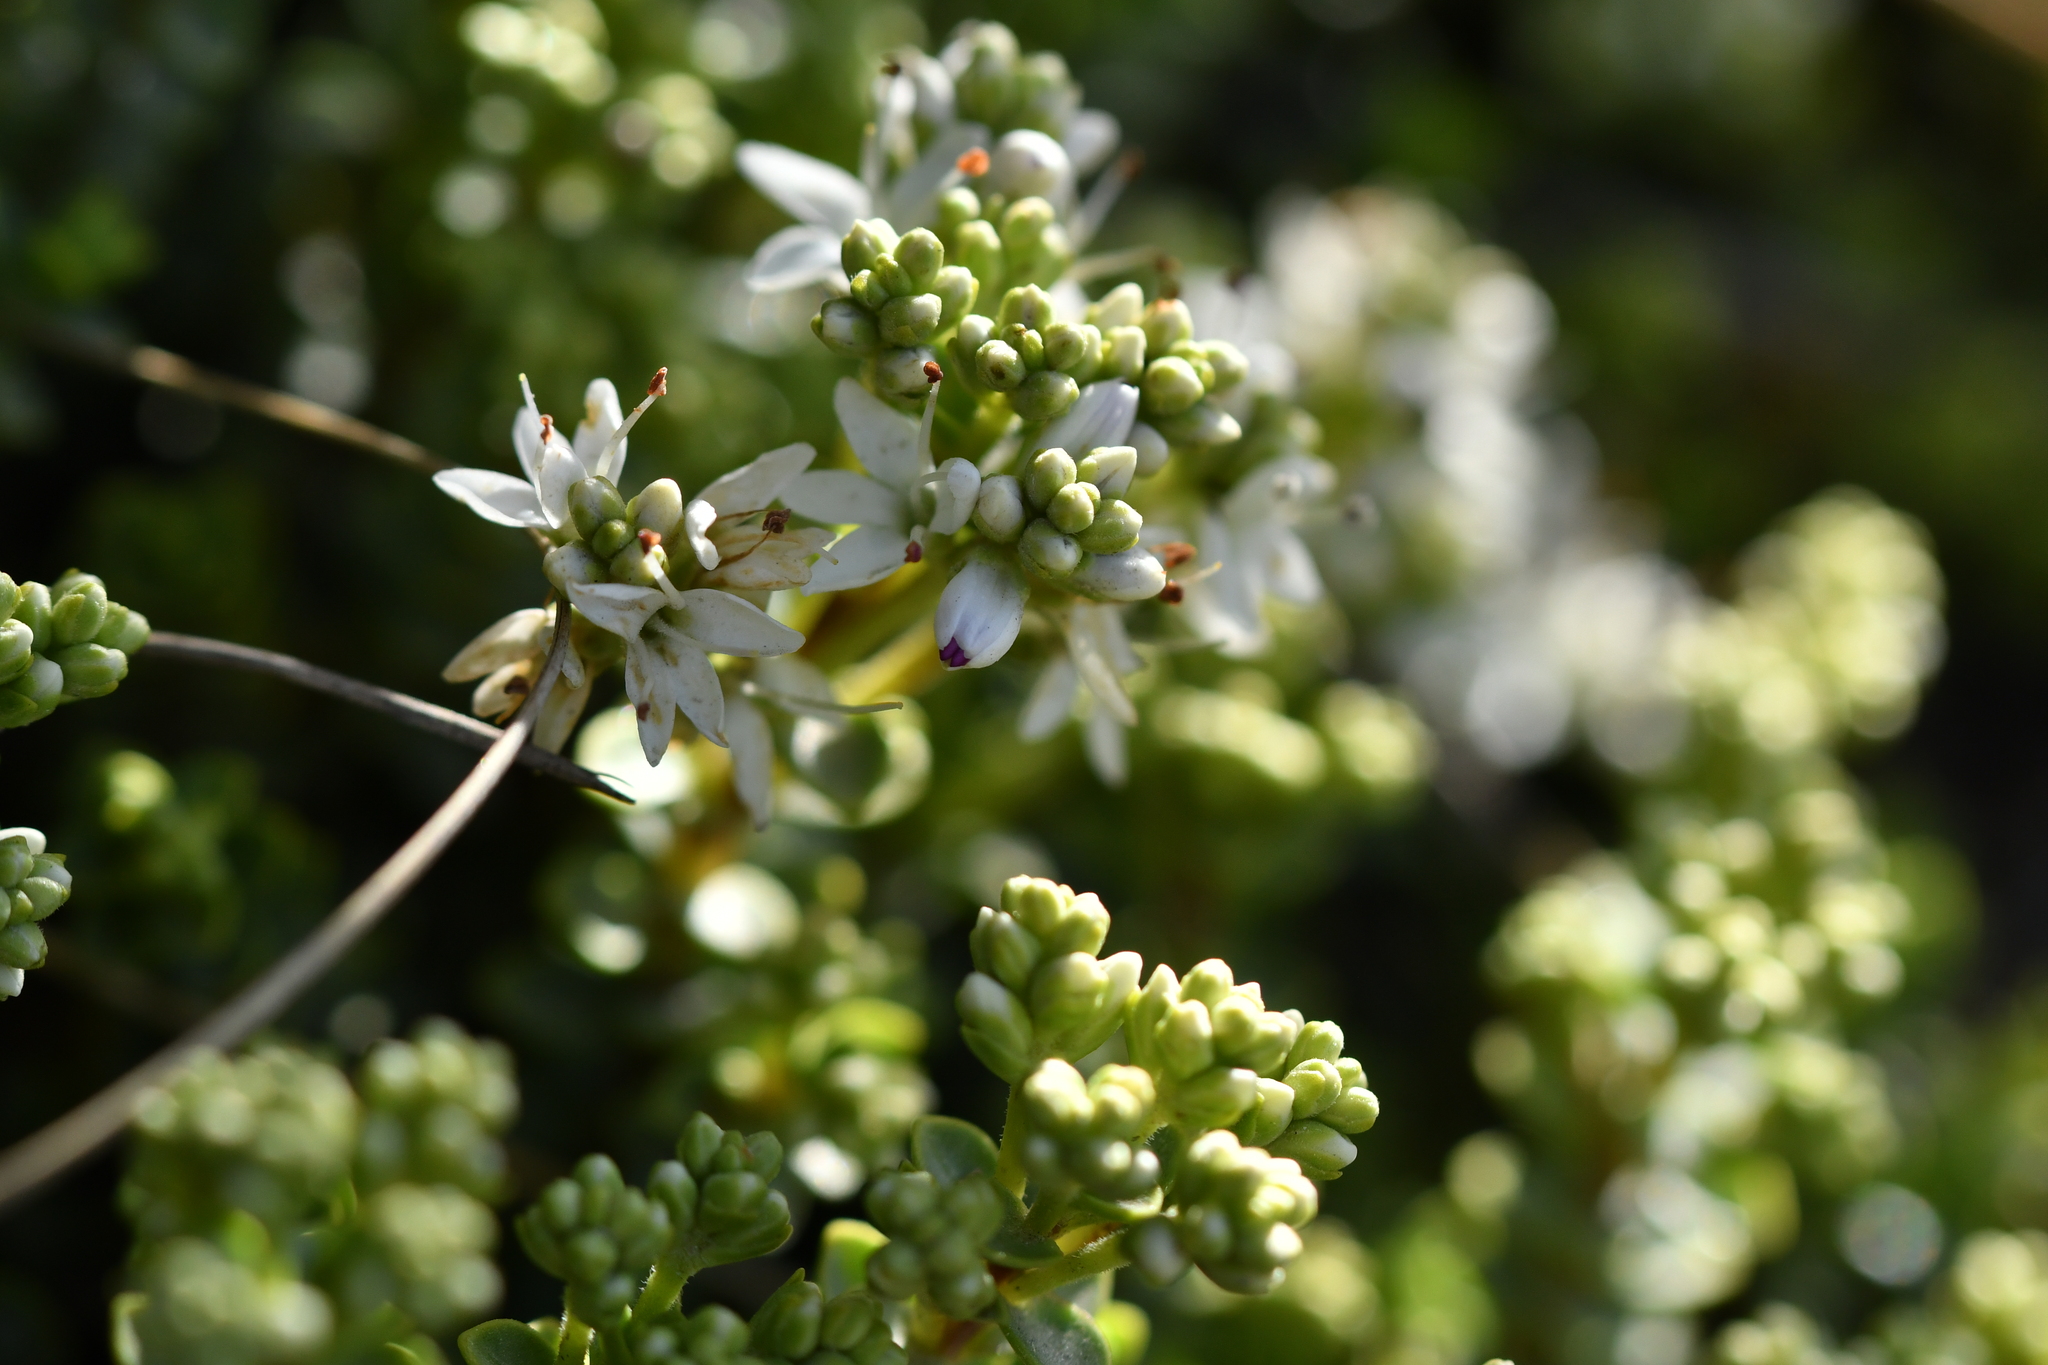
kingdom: Plantae
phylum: Tracheophyta
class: Magnoliopsida
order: Lamiales
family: Plantaginaceae
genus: Veronica
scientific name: Veronica buchananii
